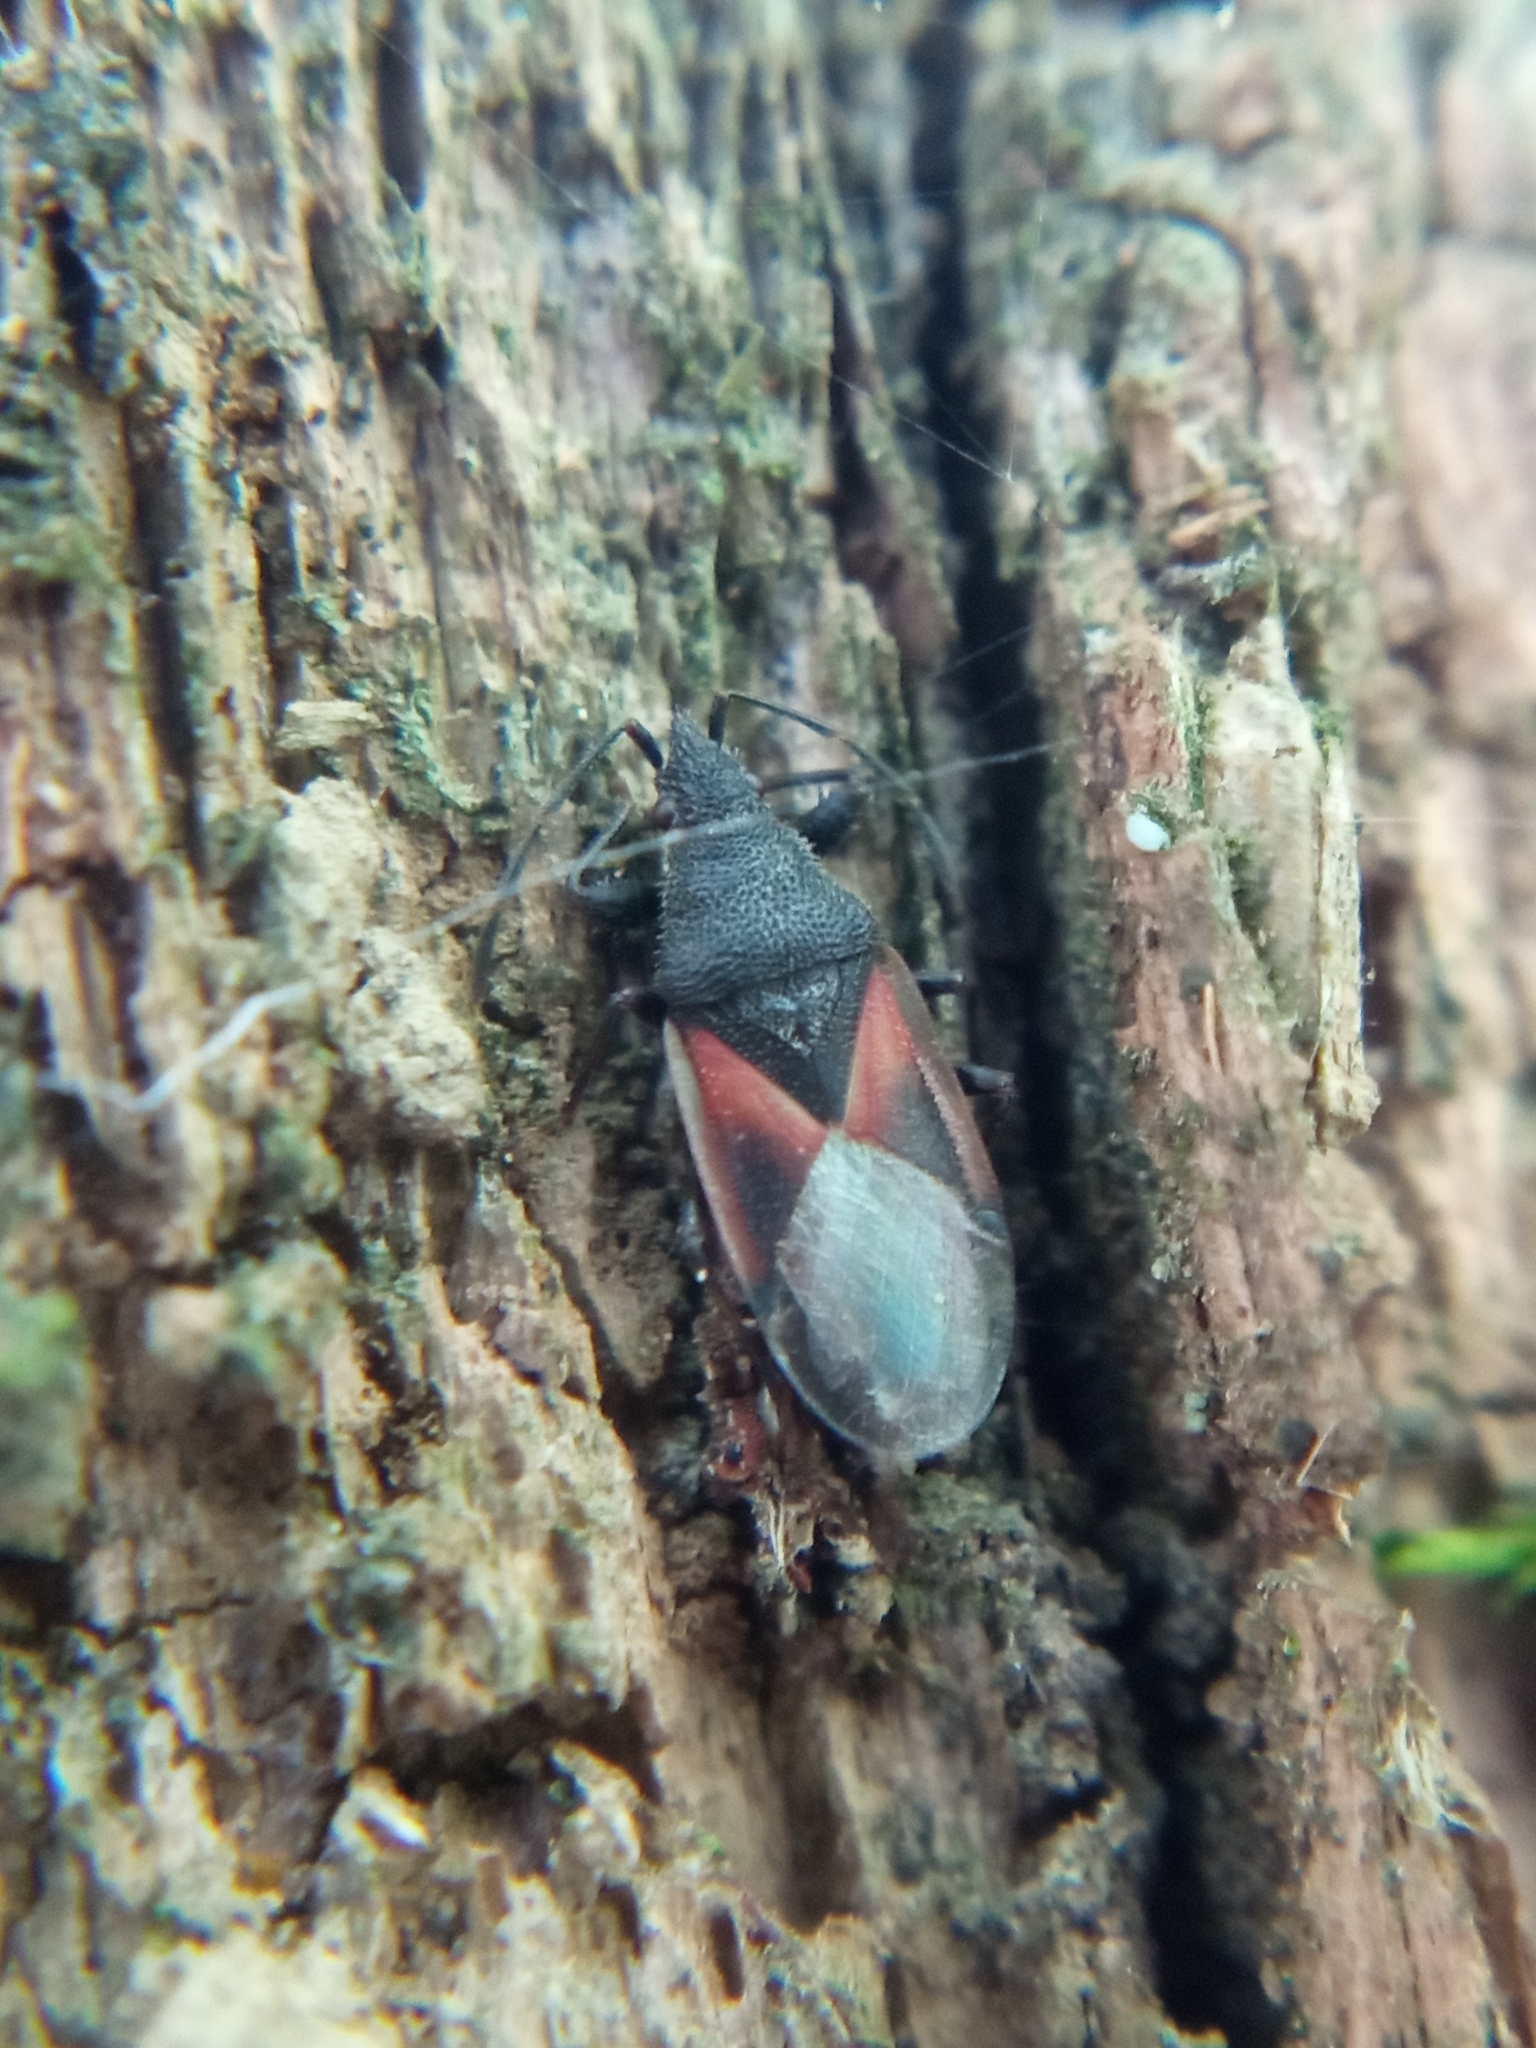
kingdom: Animalia
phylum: Arthropoda
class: Insecta
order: Hemiptera
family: Oxycarenidae
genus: Oxycarenus
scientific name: Oxycarenus lavaterae
